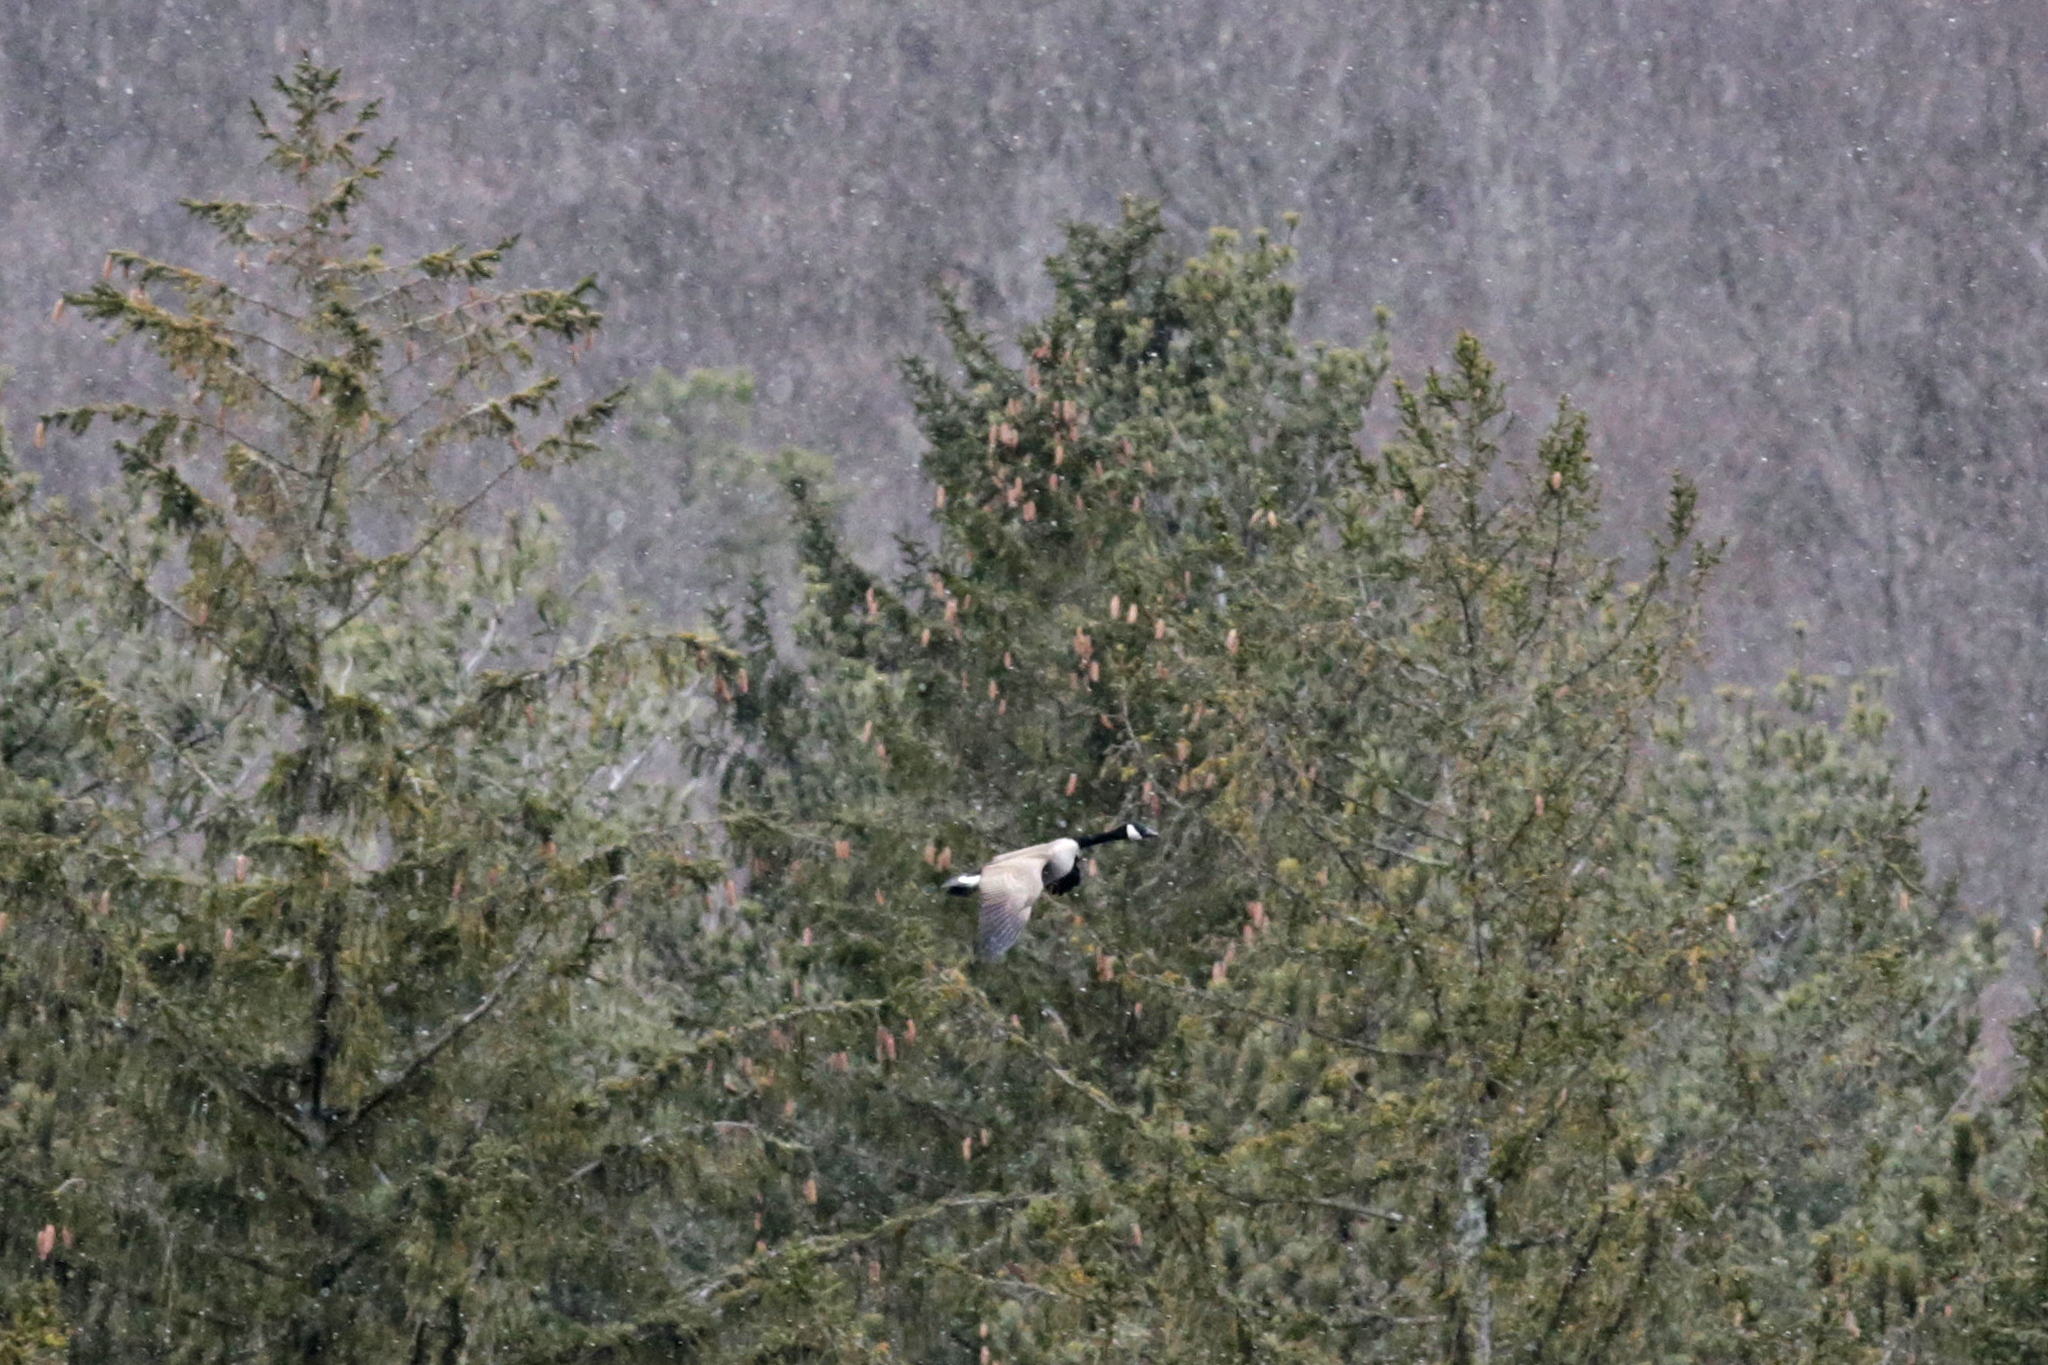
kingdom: Animalia
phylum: Chordata
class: Aves
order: Anseriformes
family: Anatidae
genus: Branta
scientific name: Branta canadensis
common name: Canada goose
